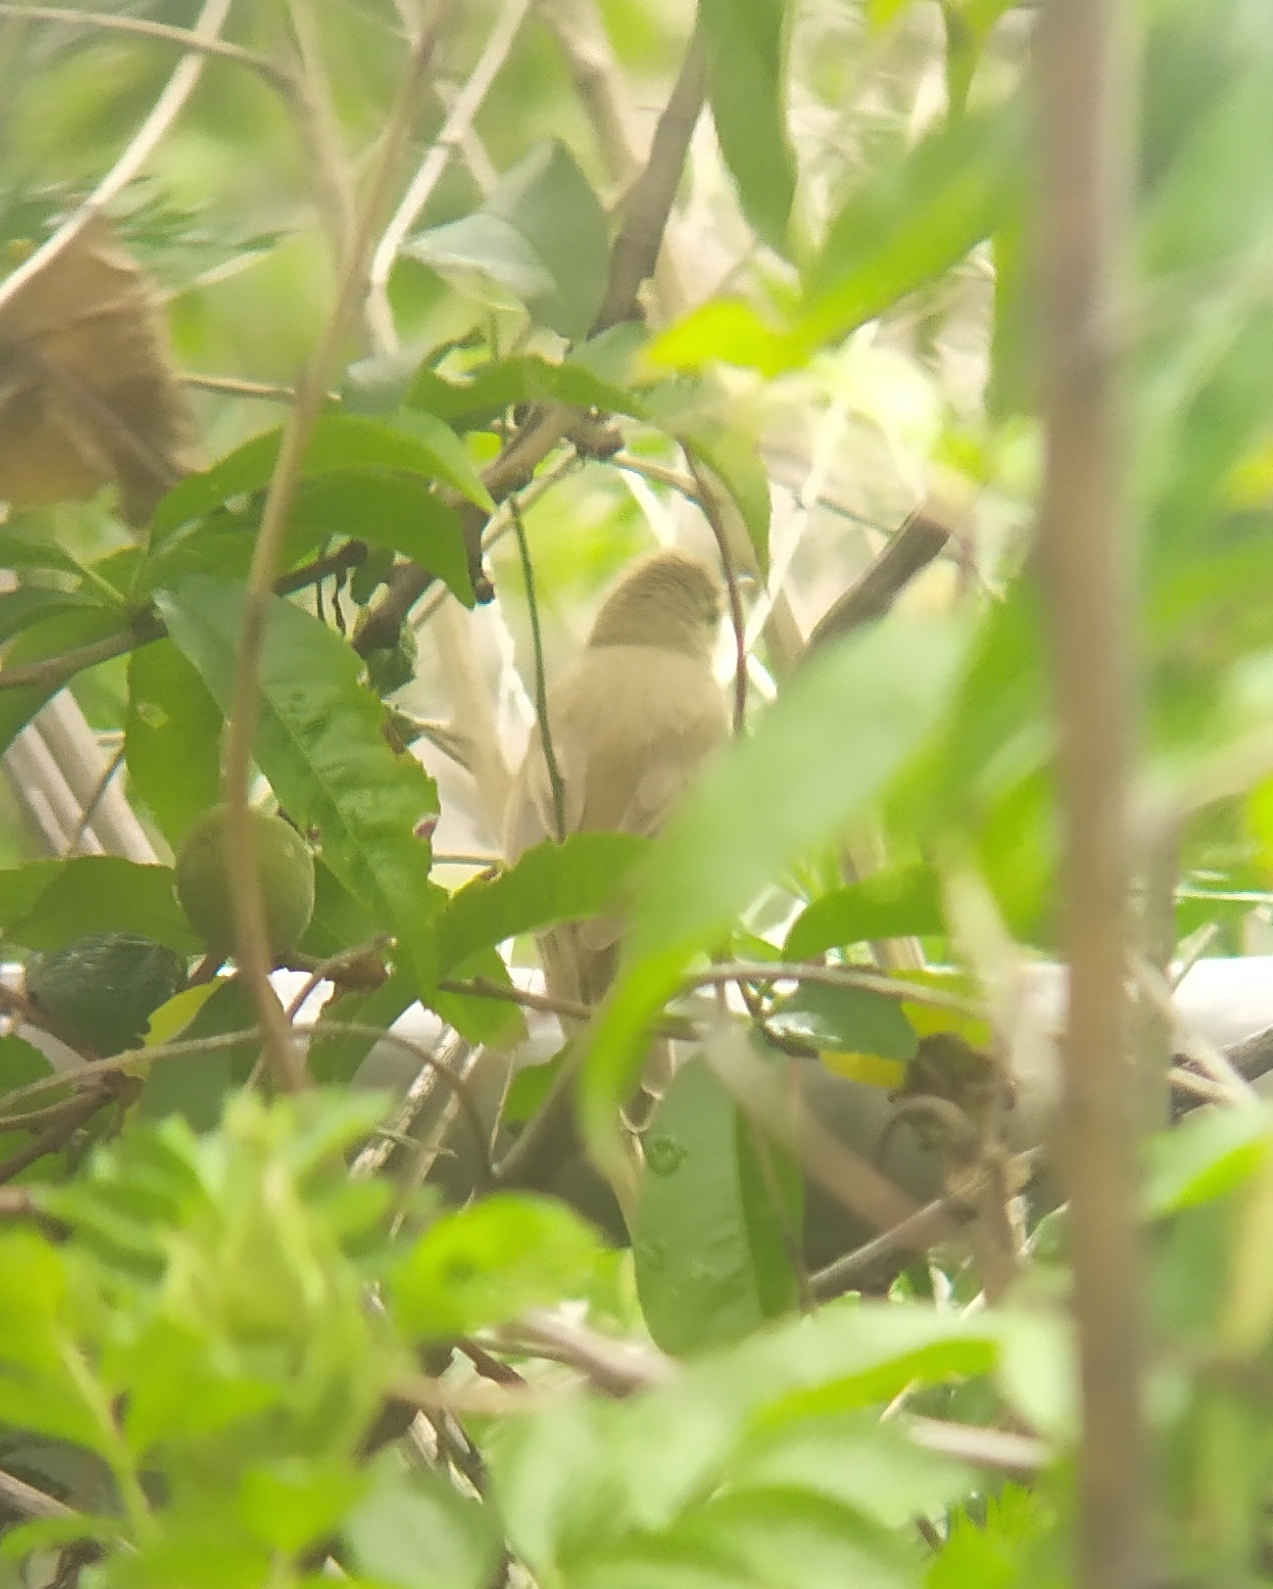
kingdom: Animalia
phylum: Chordata
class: Aves
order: Passeriformes
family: Acrocephalidae
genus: Acrocephalus
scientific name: Acrocephalus palustris
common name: Marsh warbler
